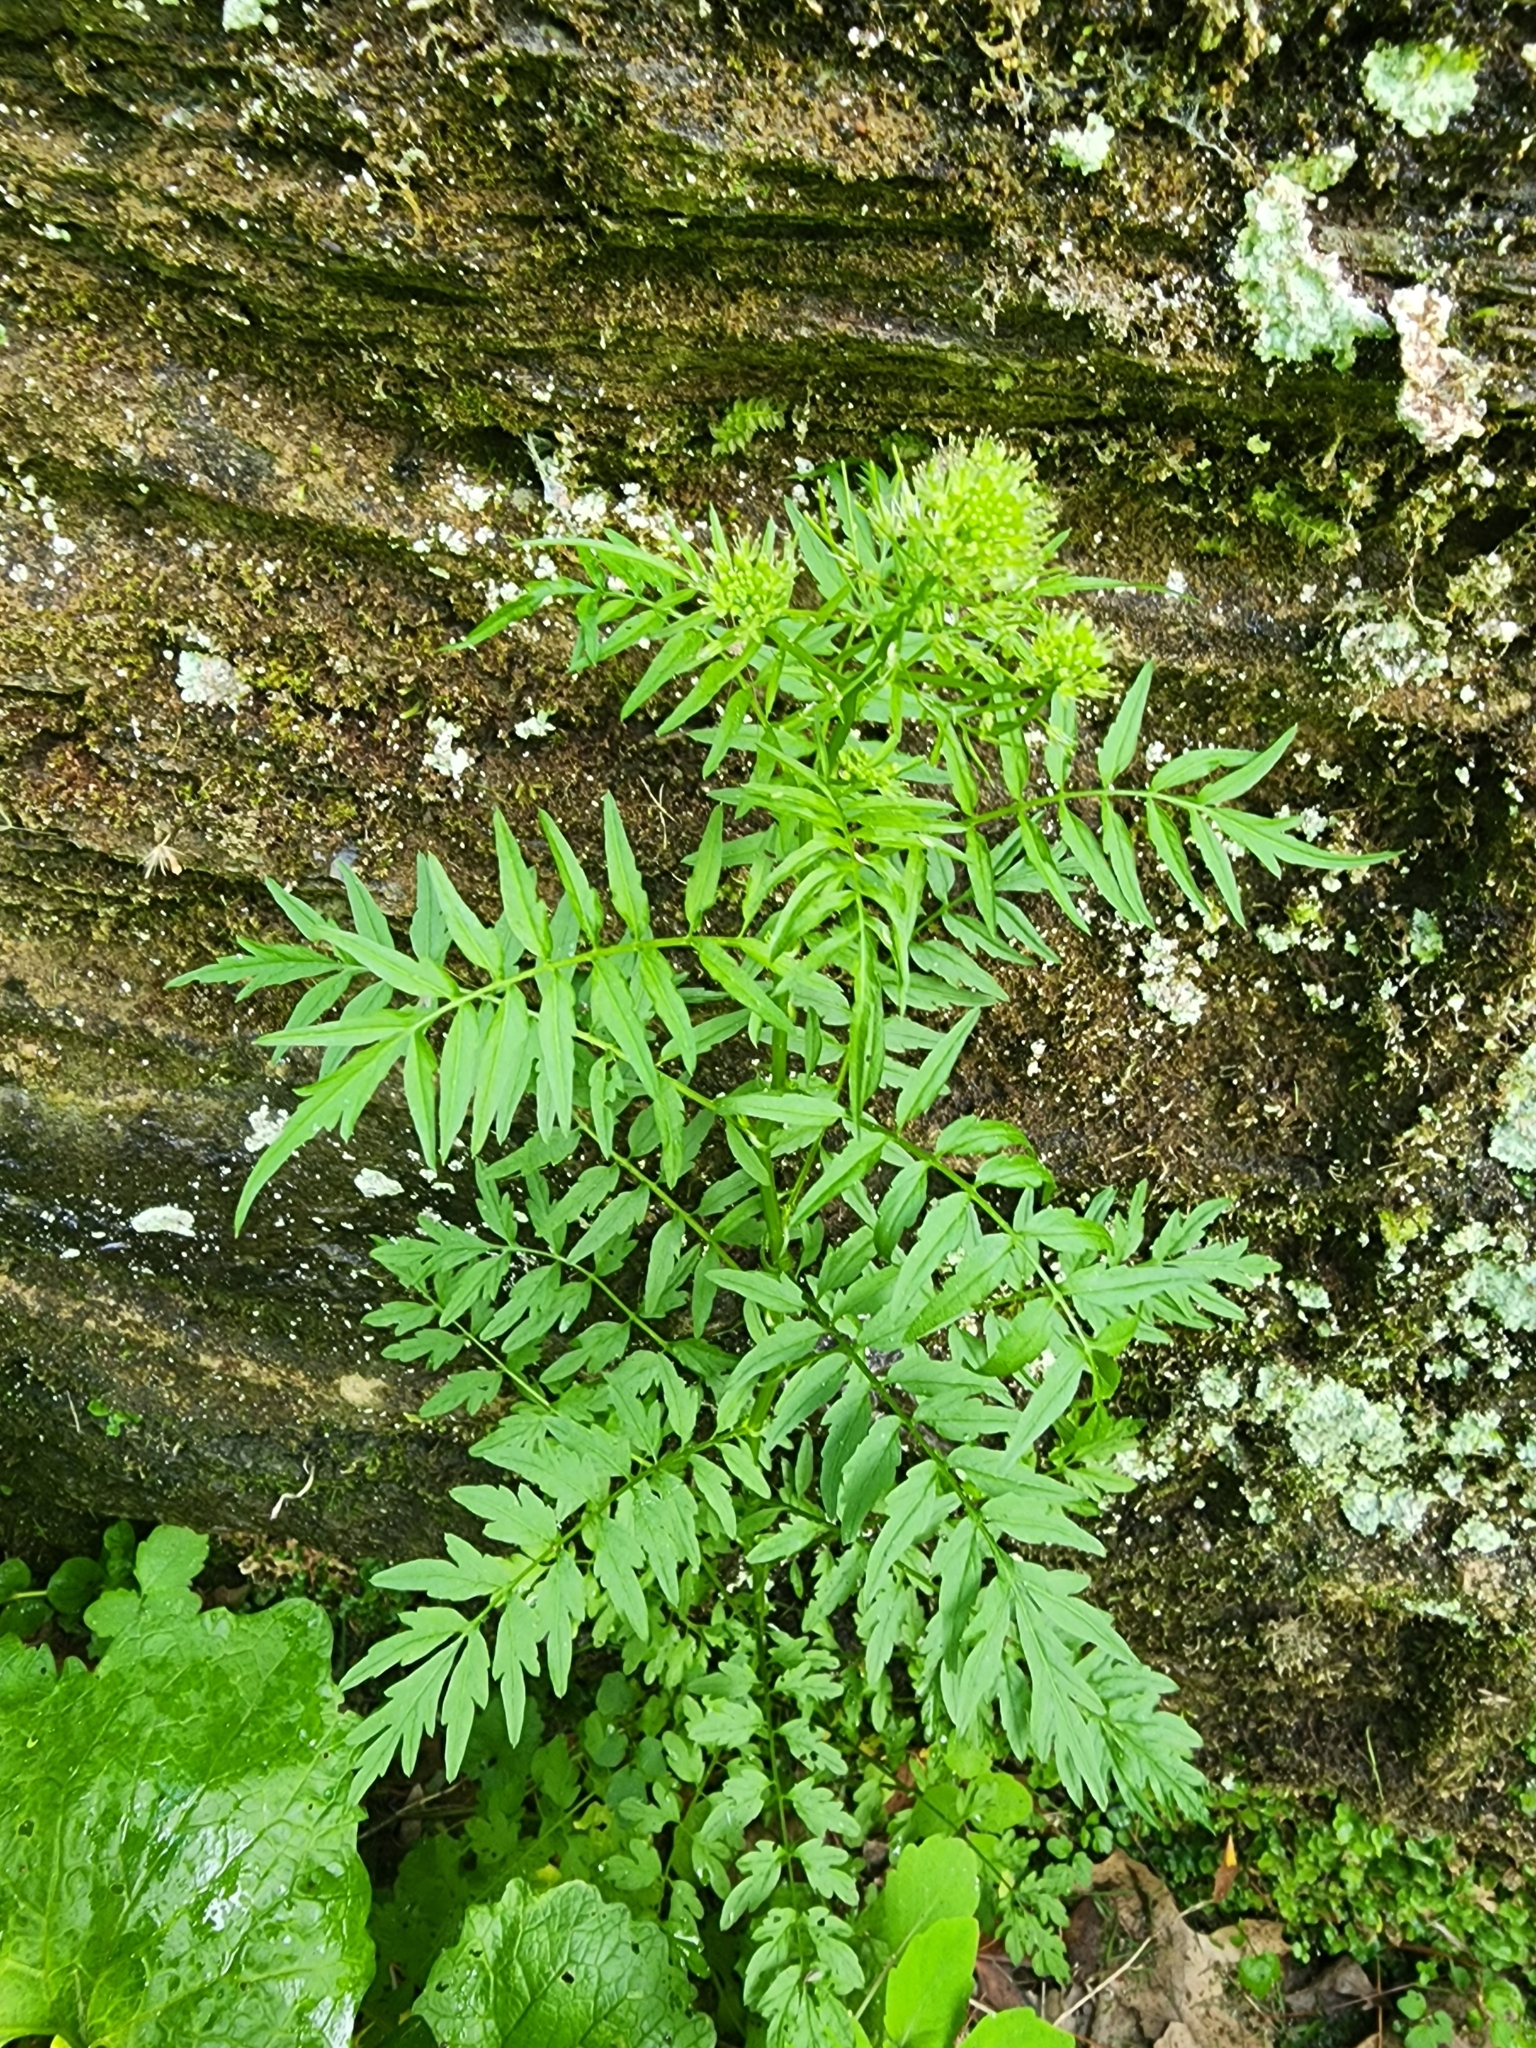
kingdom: Plantae
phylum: Tracheophyta
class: Magnoliopsida
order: Brassicales
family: Brassicaceae
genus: Cardamine
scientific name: Cardamine impatiens
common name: Narrow-leaved bitter-cress
